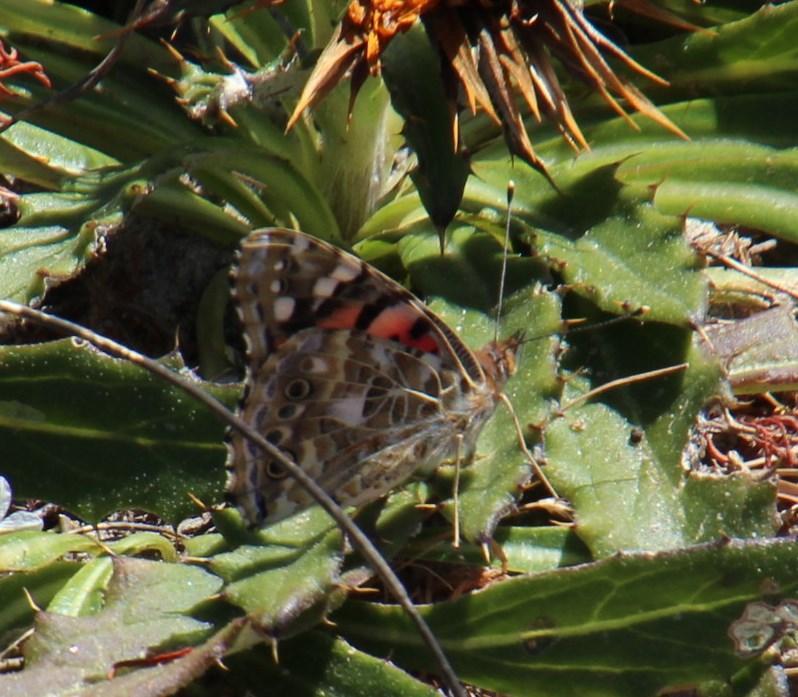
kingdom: Animalia
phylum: Arthropoda
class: Insecta
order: Lepidoptera
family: Nymphalidae
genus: Vanessa
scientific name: Vanessa cardui
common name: Painted lady
